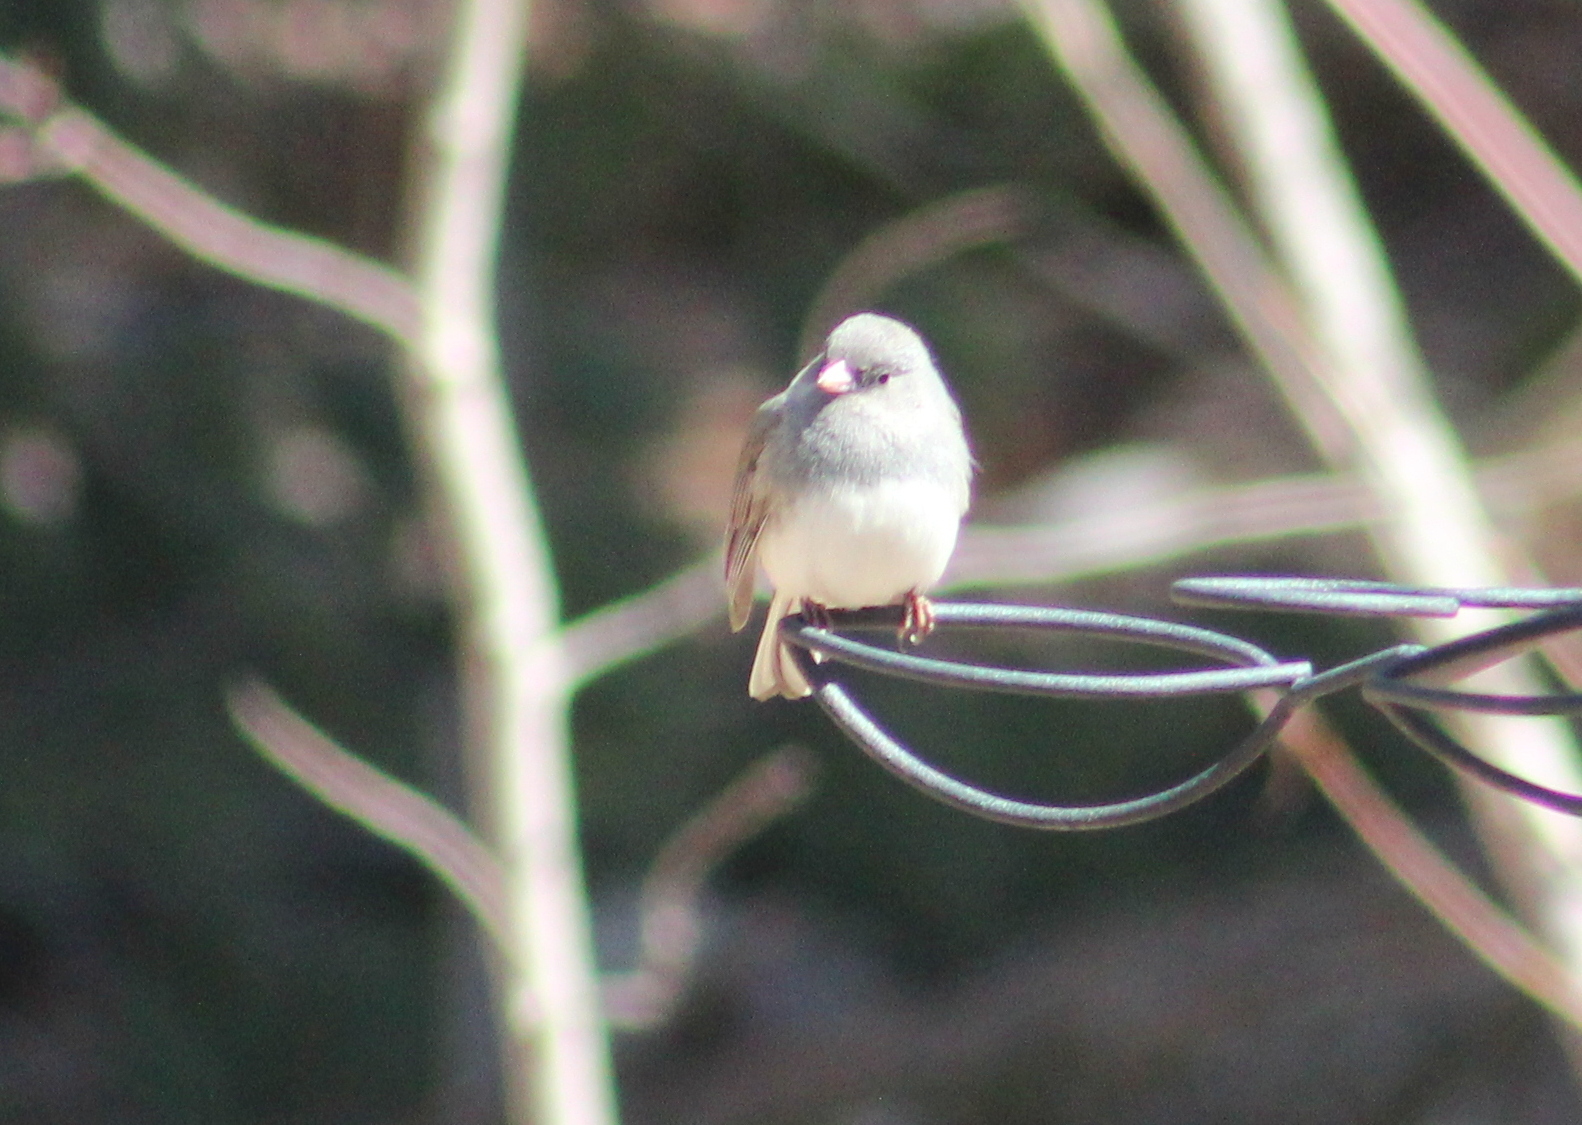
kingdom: Animalia
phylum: Chordata
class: Aves
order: Passeriformes
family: Passerellidae
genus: Junco
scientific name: Junco hyemalis
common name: Dark-eyed junco
